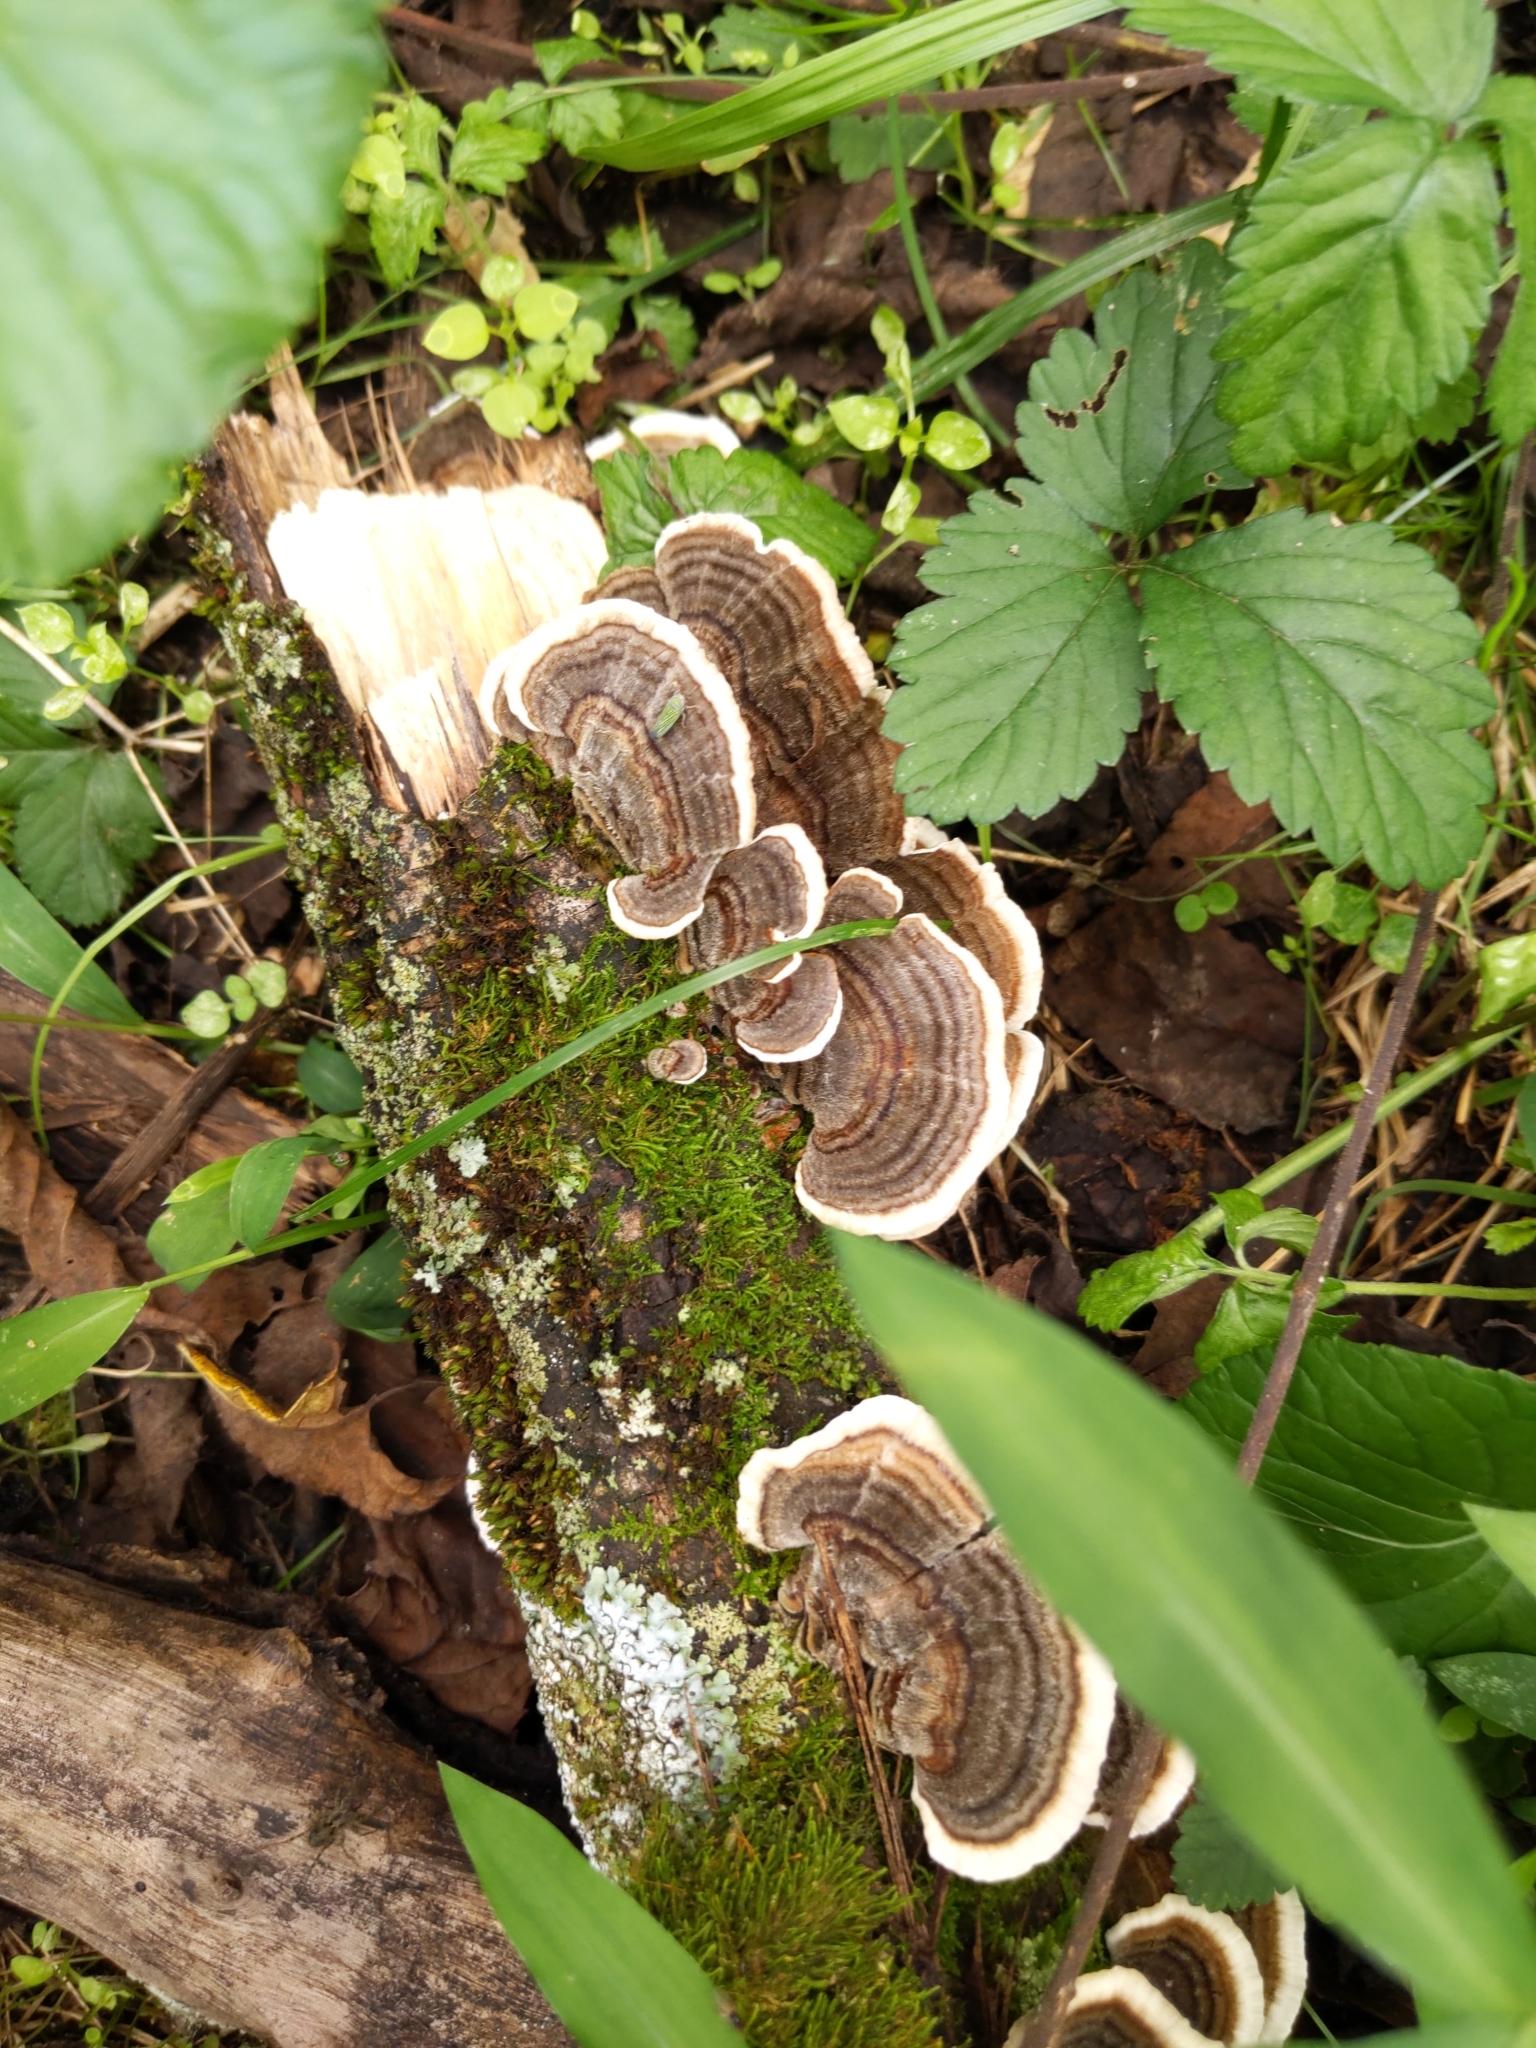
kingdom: Fungi
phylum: Basidiomycota
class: Agaricomycetes
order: Polyporales
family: Polyporaceae
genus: Trametes
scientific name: Trametes versicolor
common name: Turkeytail
